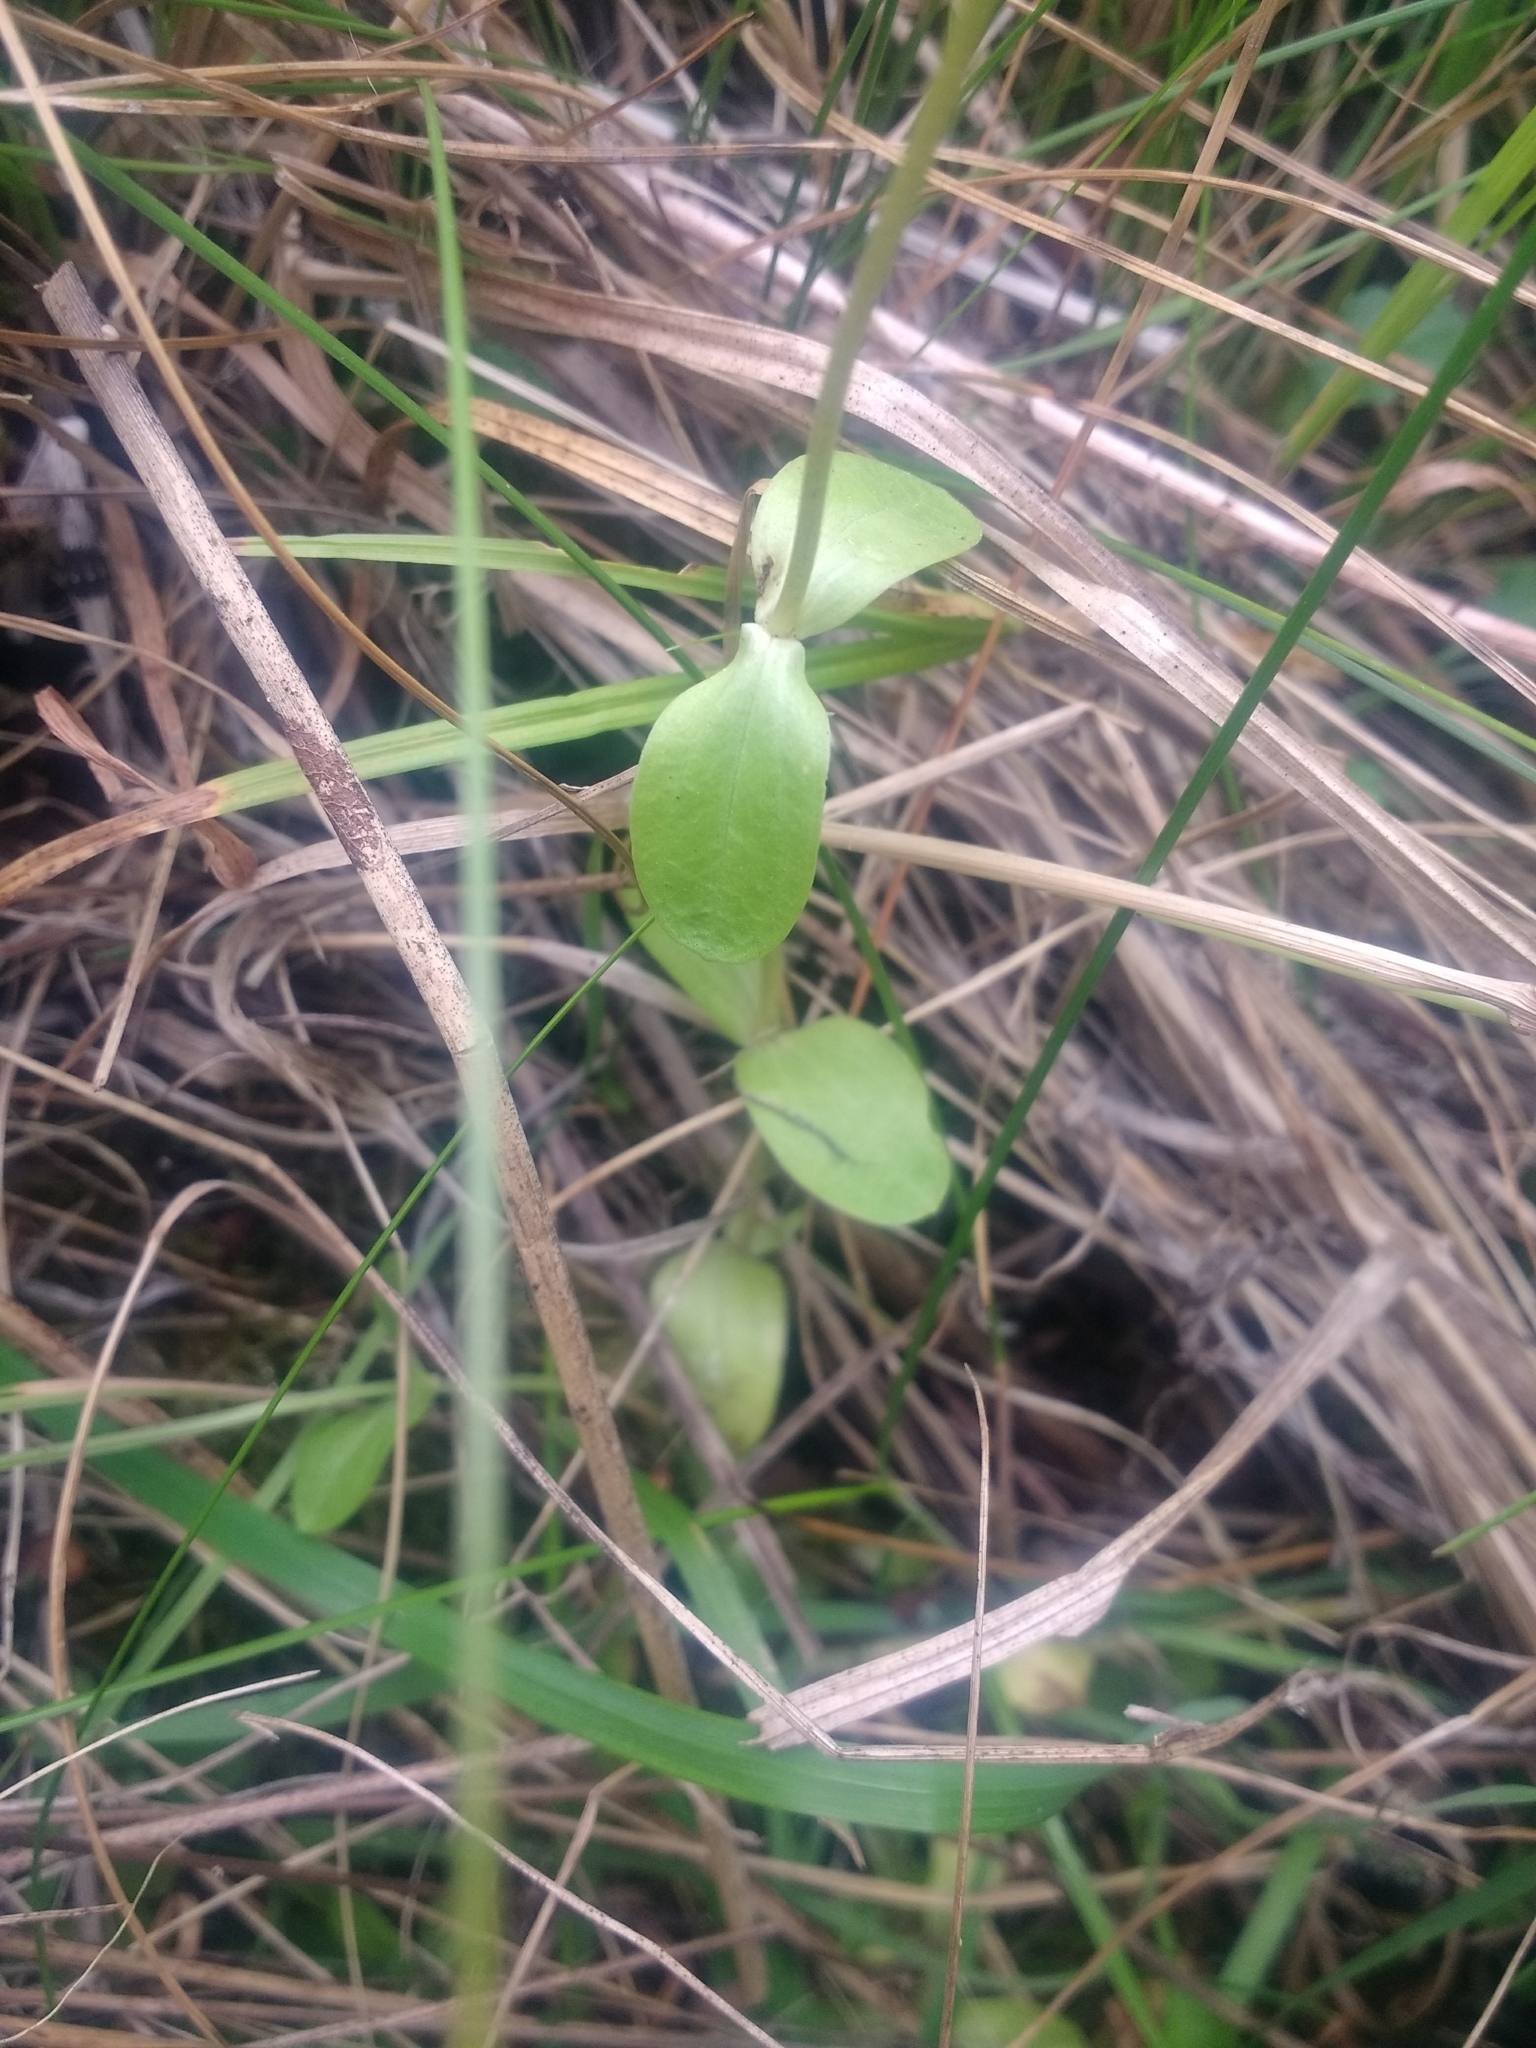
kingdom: Plantae
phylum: Tracheophyta
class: Magnoliopsida
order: Gentianales
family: Gentianaceae
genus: Centaurium
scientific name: Centaurium erythraea
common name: Common centaury
